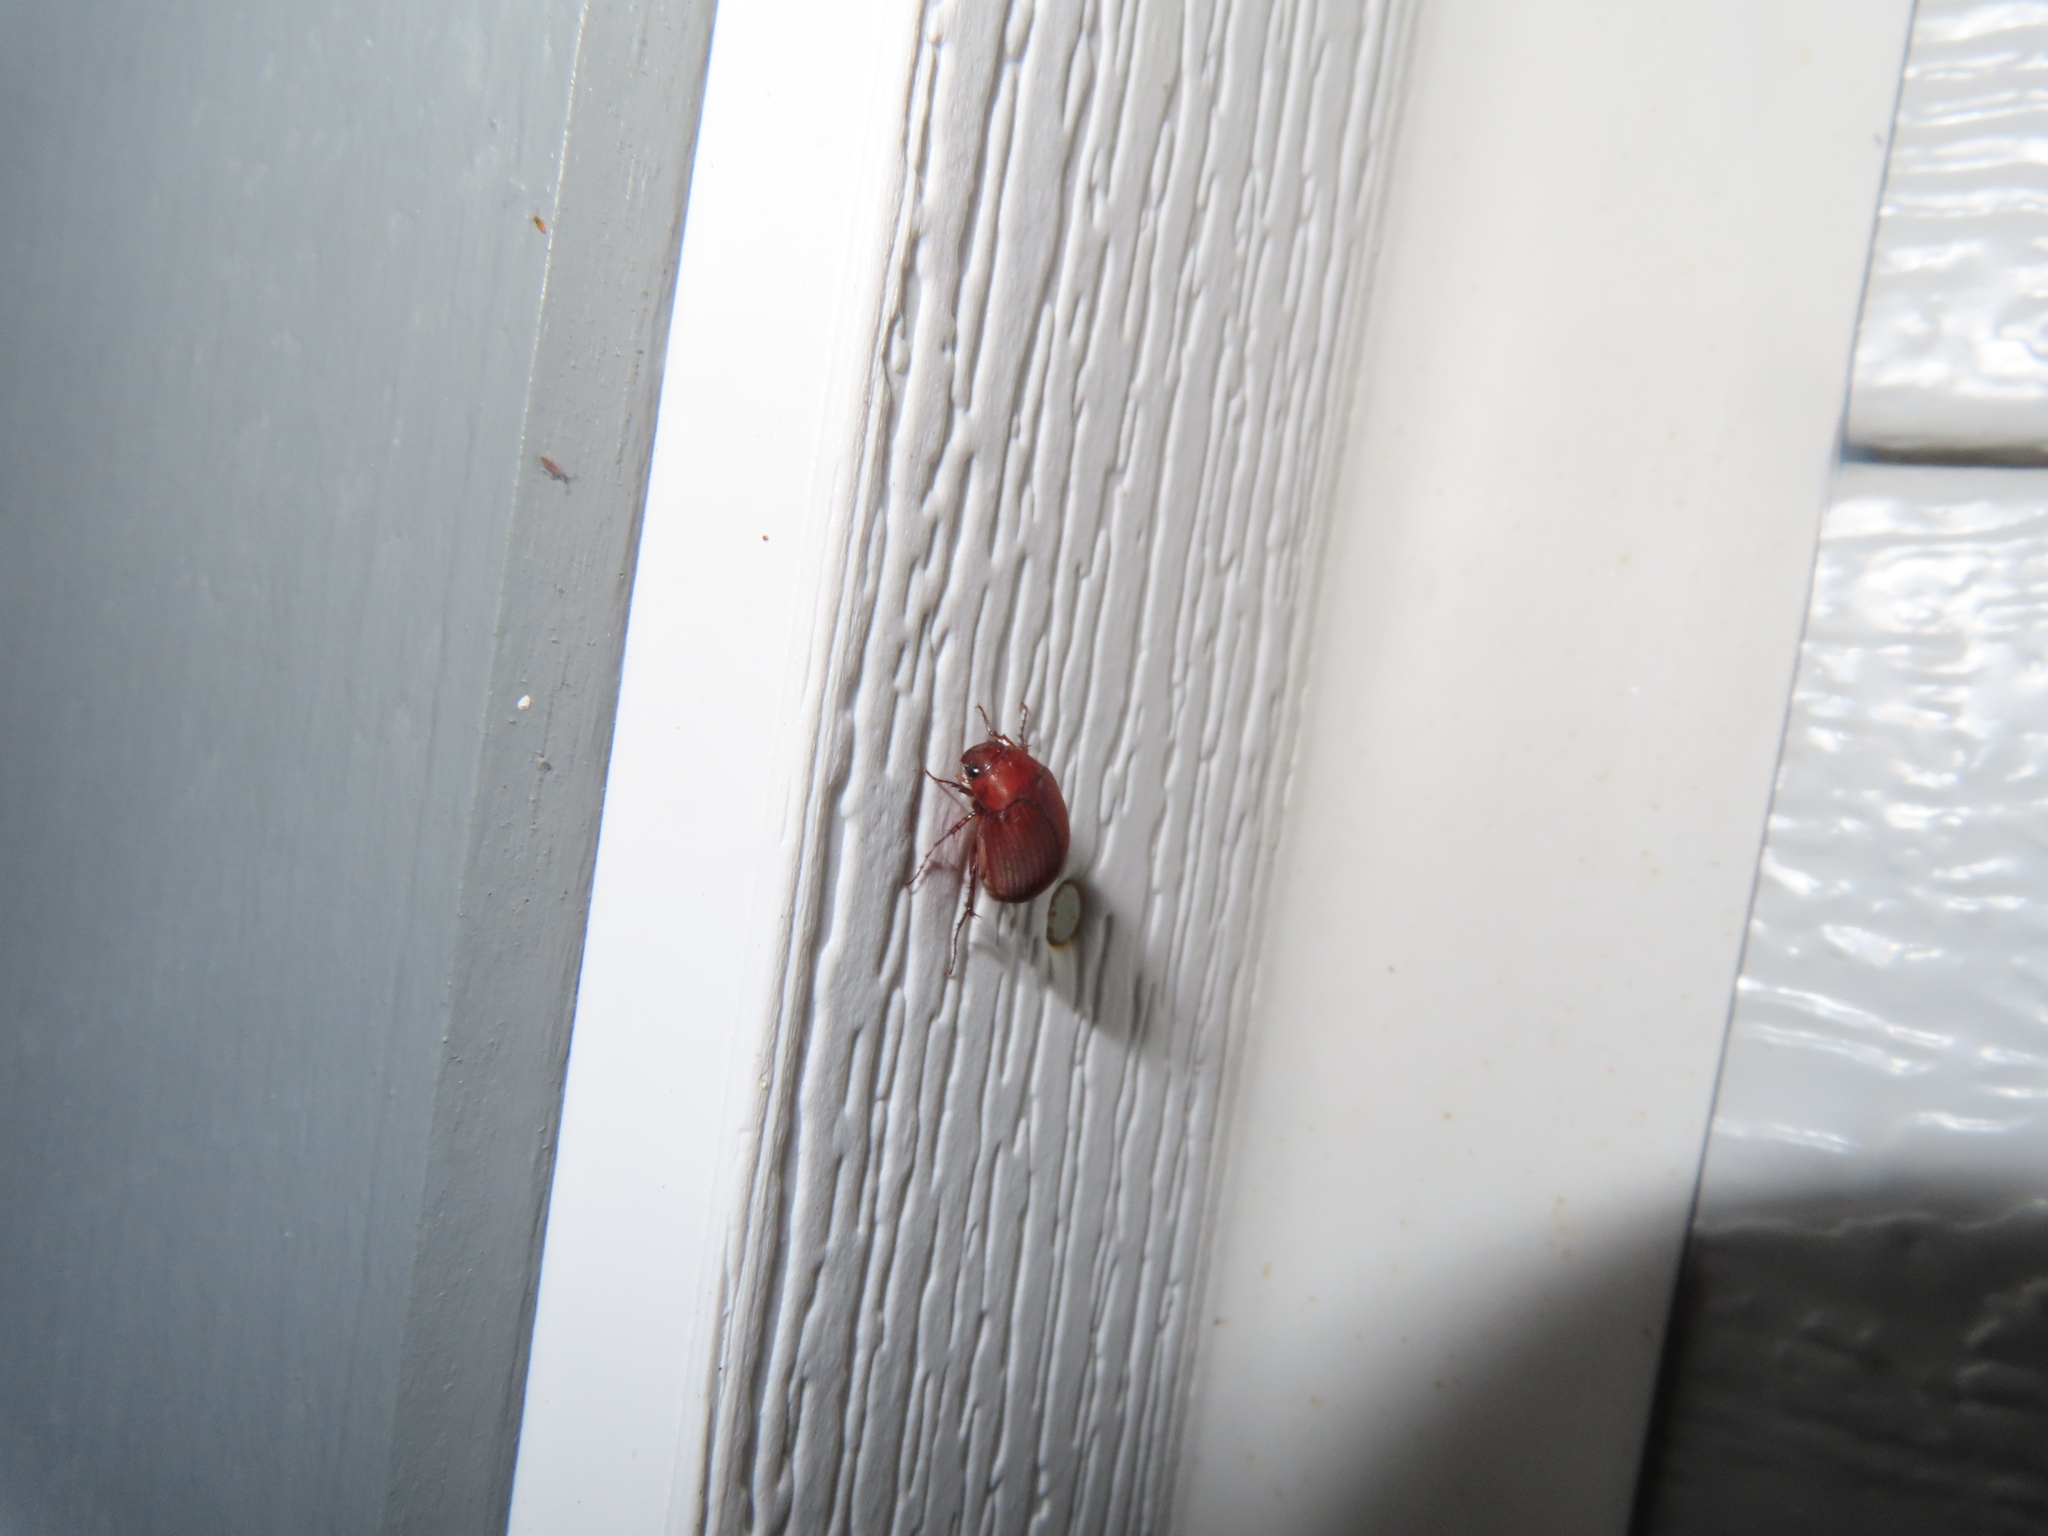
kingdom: Animalia
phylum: Arthropoda
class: Insecta
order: Coleoptera
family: Scarabaeidae
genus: Maladera
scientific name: Maladera formosae
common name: Asiatic garden beetle
